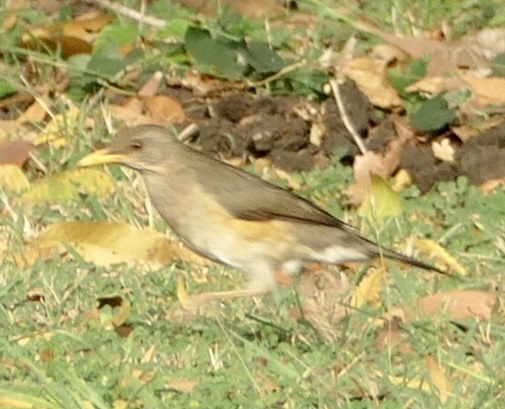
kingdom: Animalia
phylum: Chordata
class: Aves
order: Passeriformes
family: Turdidae
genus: Turdus
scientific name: Turdus pelios
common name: African thrush
